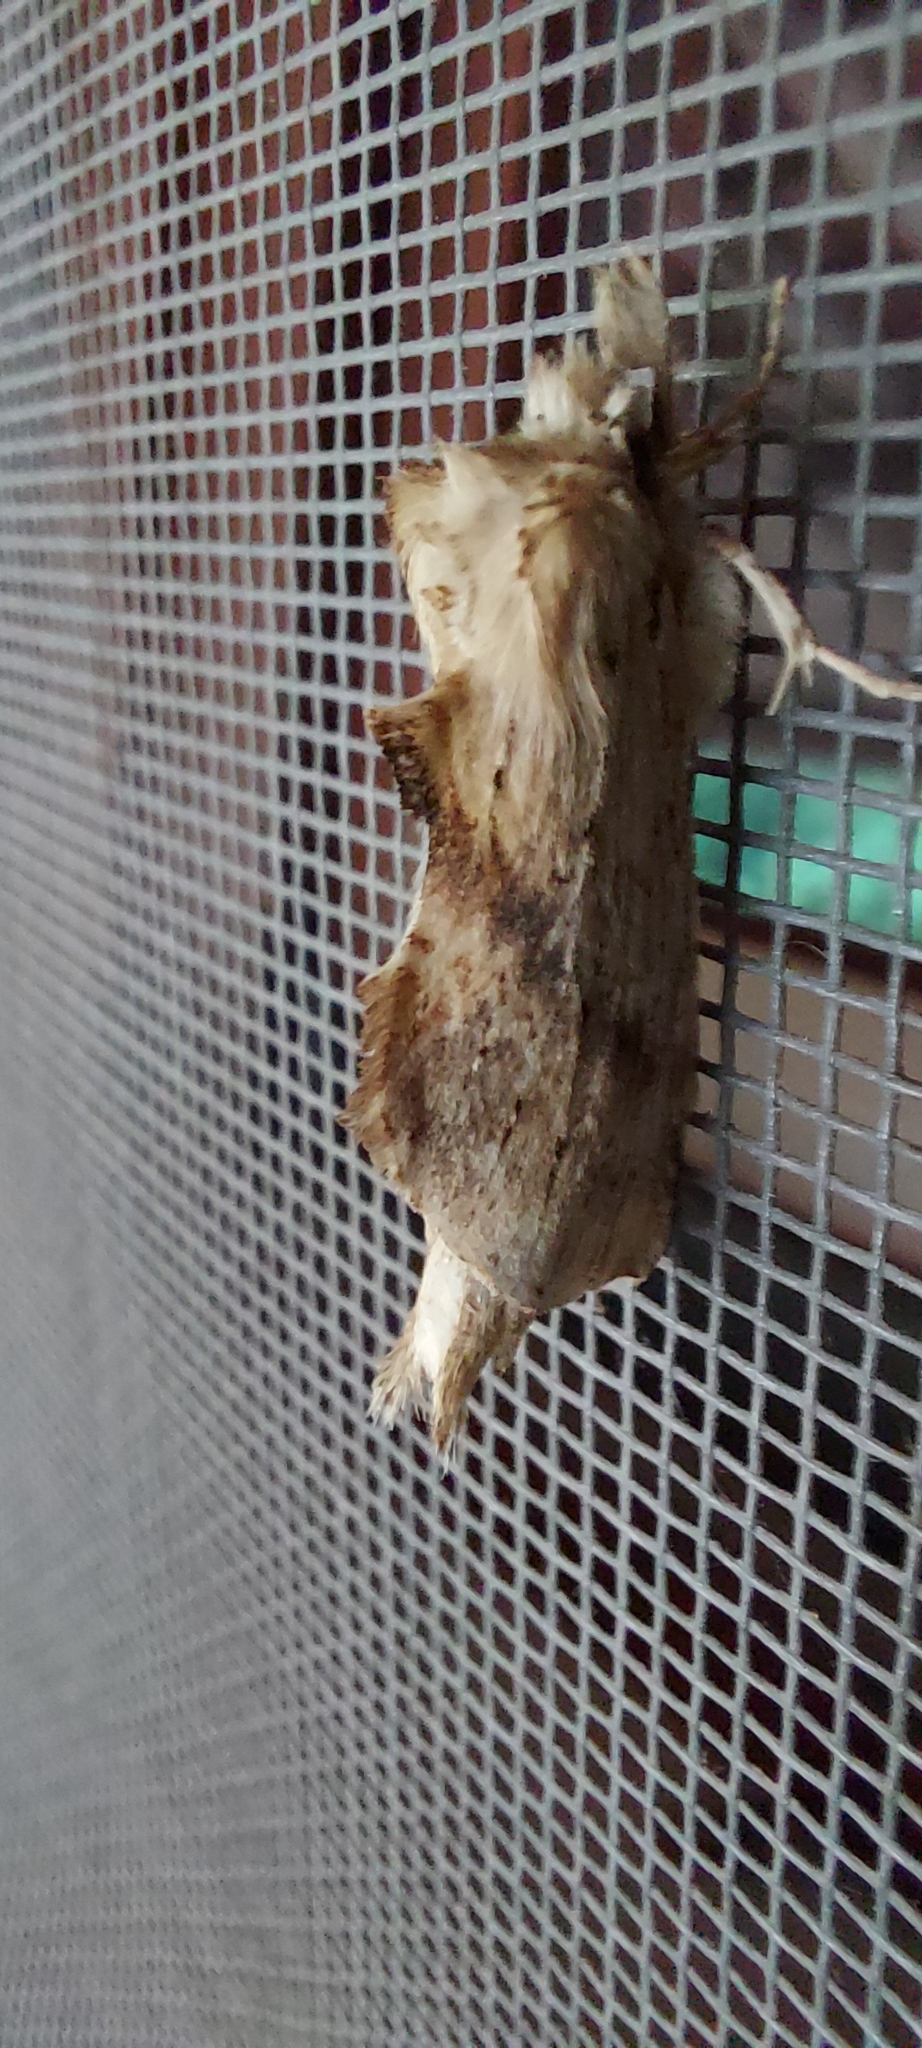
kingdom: Animalia
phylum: Arthropoda
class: Insecta
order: Lepidoptera
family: Notodontidae
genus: Pterostoma
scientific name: Pterostoma palpina
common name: Pale prominent
